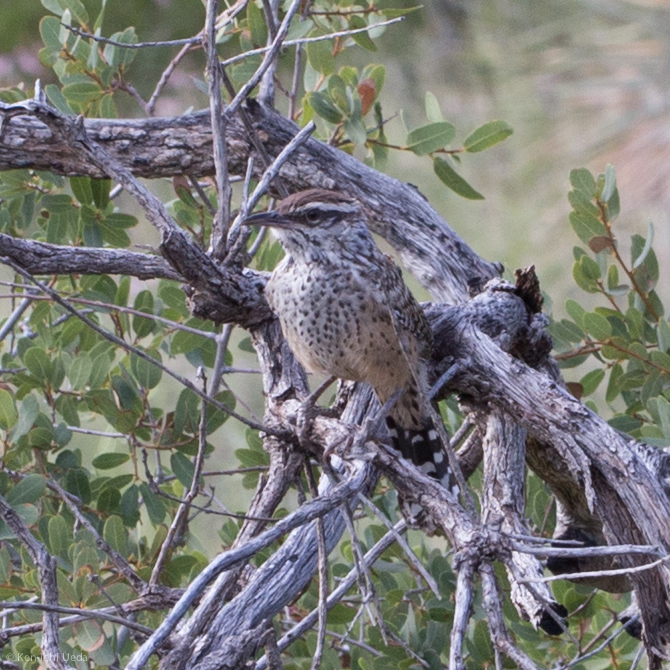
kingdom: Animalia
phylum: Chordata
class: Aves
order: Passeriformes
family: Troglodytidae
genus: Campylorhynchus
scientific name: Campylorhynchus brunneicapillus
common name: Cactus wren
